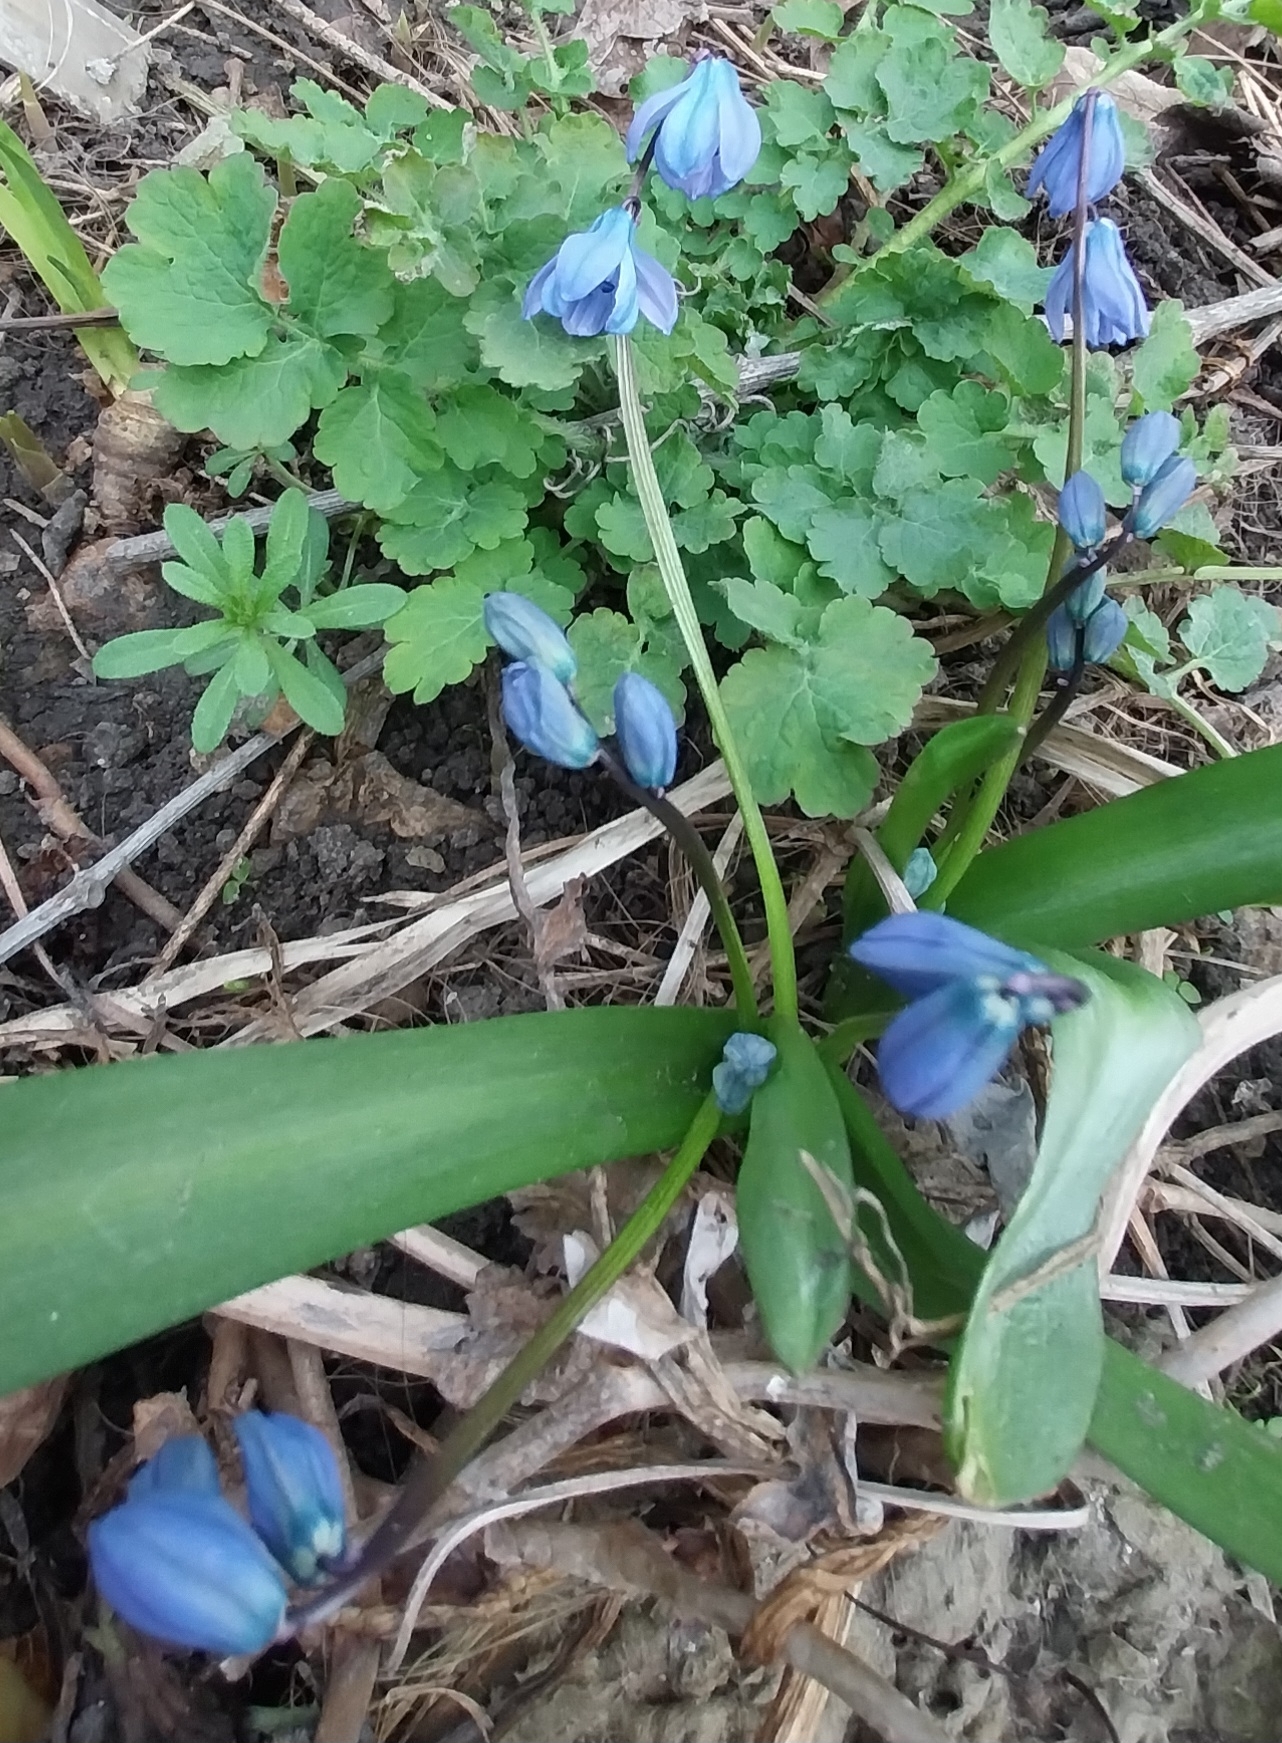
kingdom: Plantae
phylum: Tracheophyta
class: Liliopsida
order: Asparagales
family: Asparagaceae
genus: Scilla
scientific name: Scilla siberica
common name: Siberian squill
